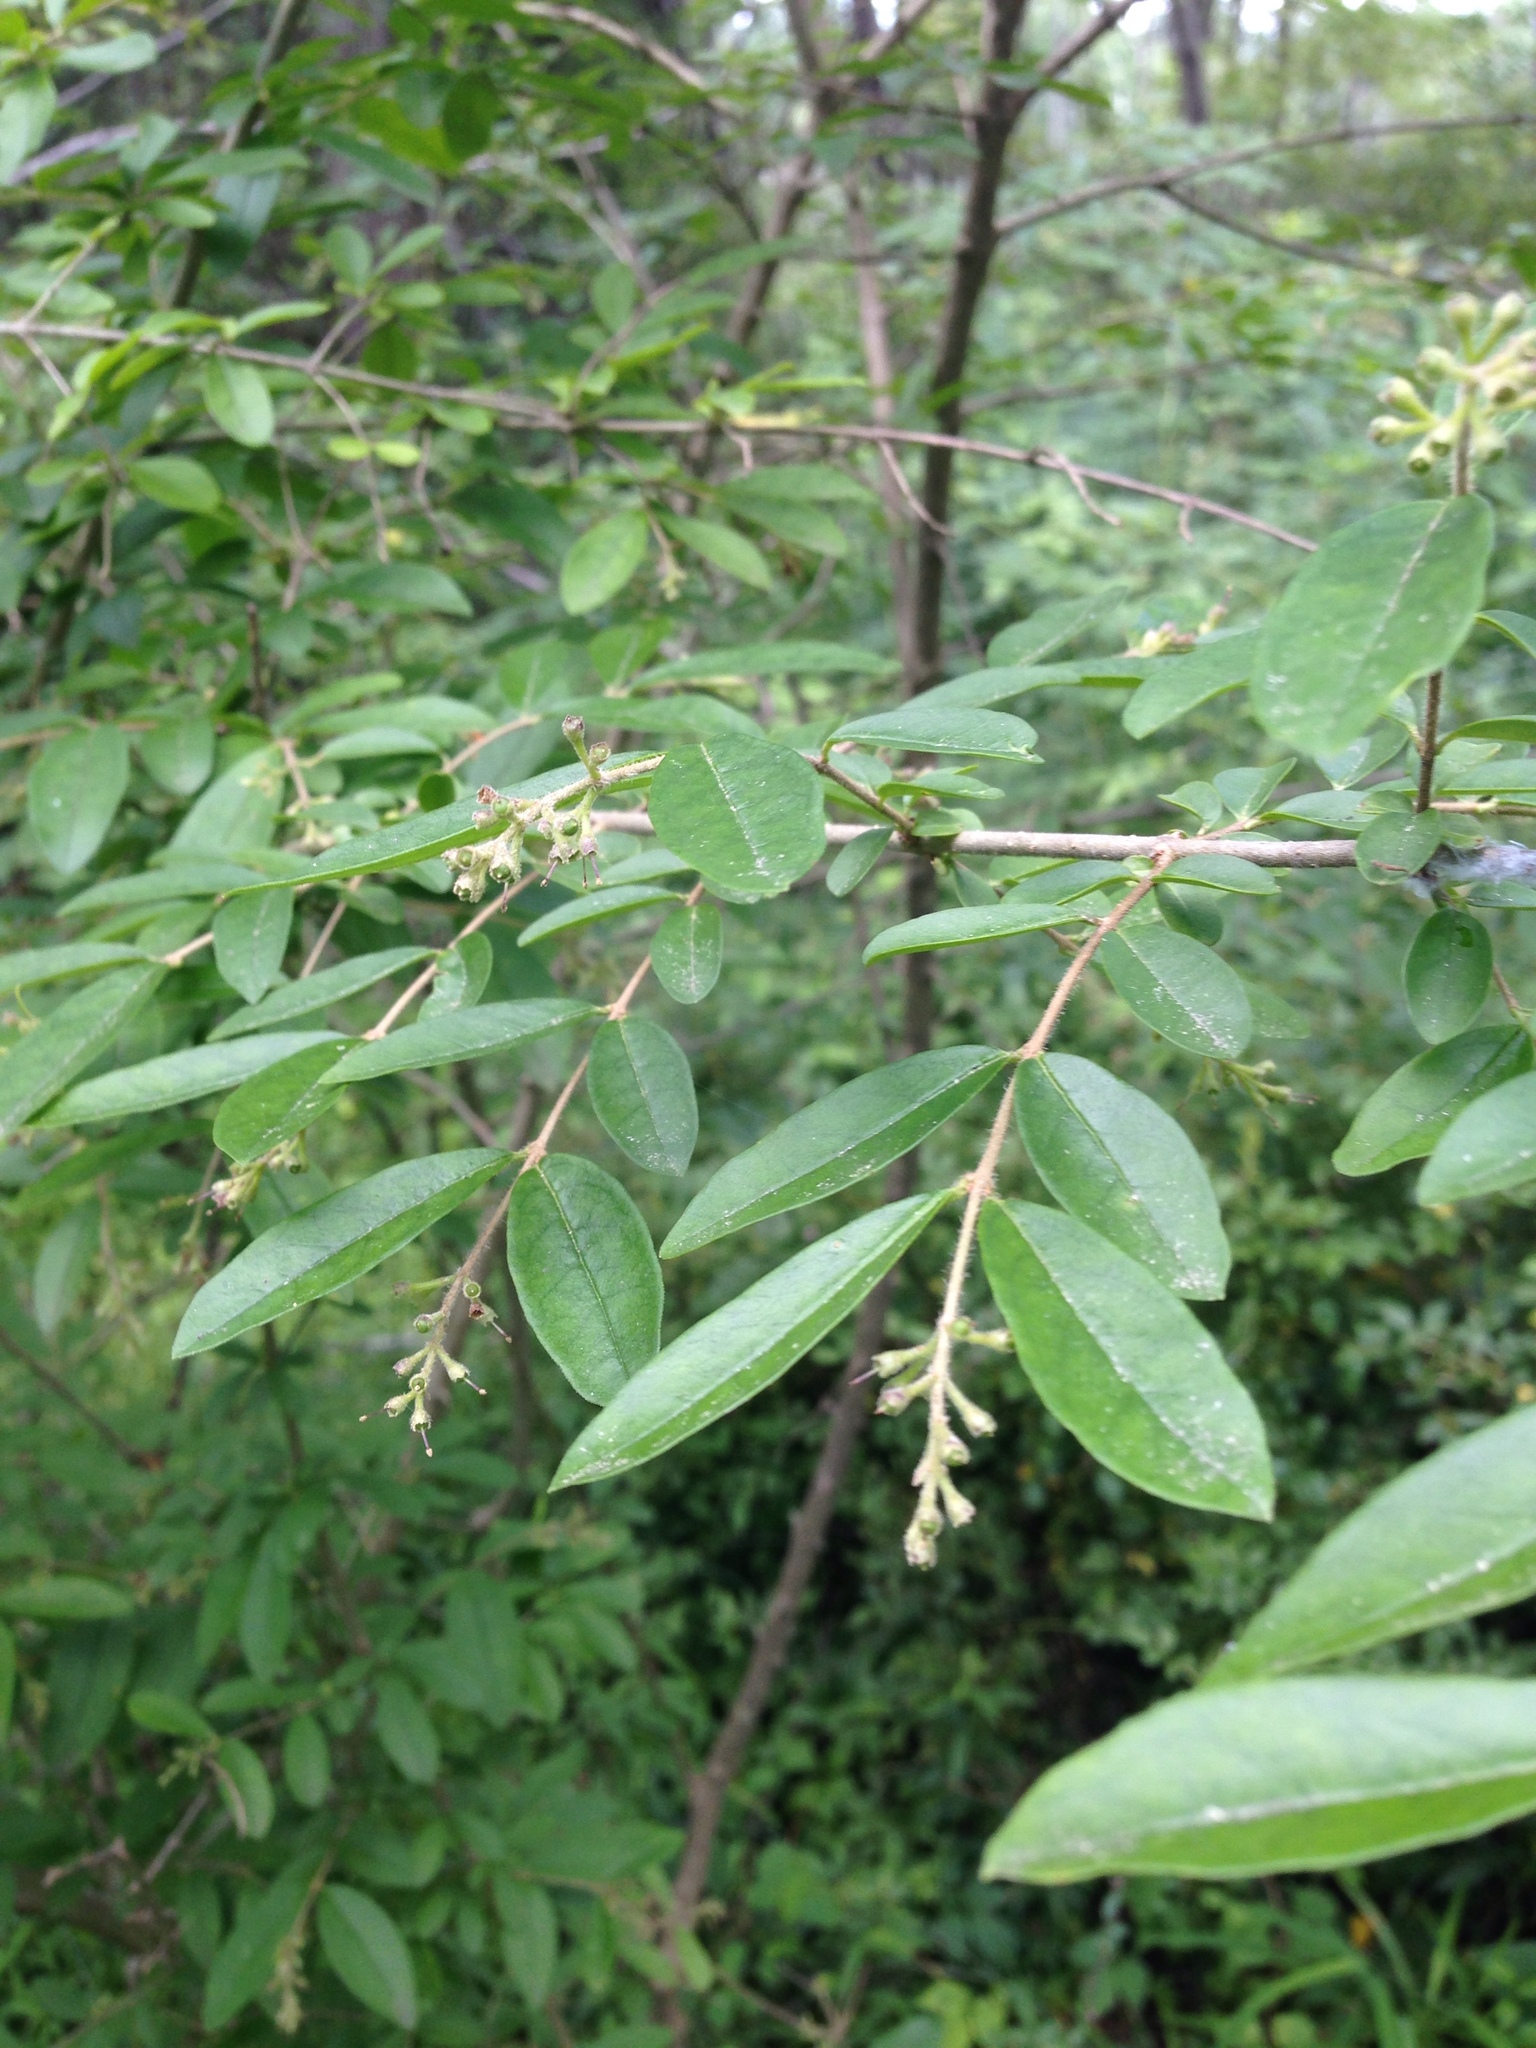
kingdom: Plantae
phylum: Tracheophyta
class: Magnoliopsida
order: Lamiales
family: Oleaceae
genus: Ligustrum
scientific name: Ligustrum obtusifolium
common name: Border privet
